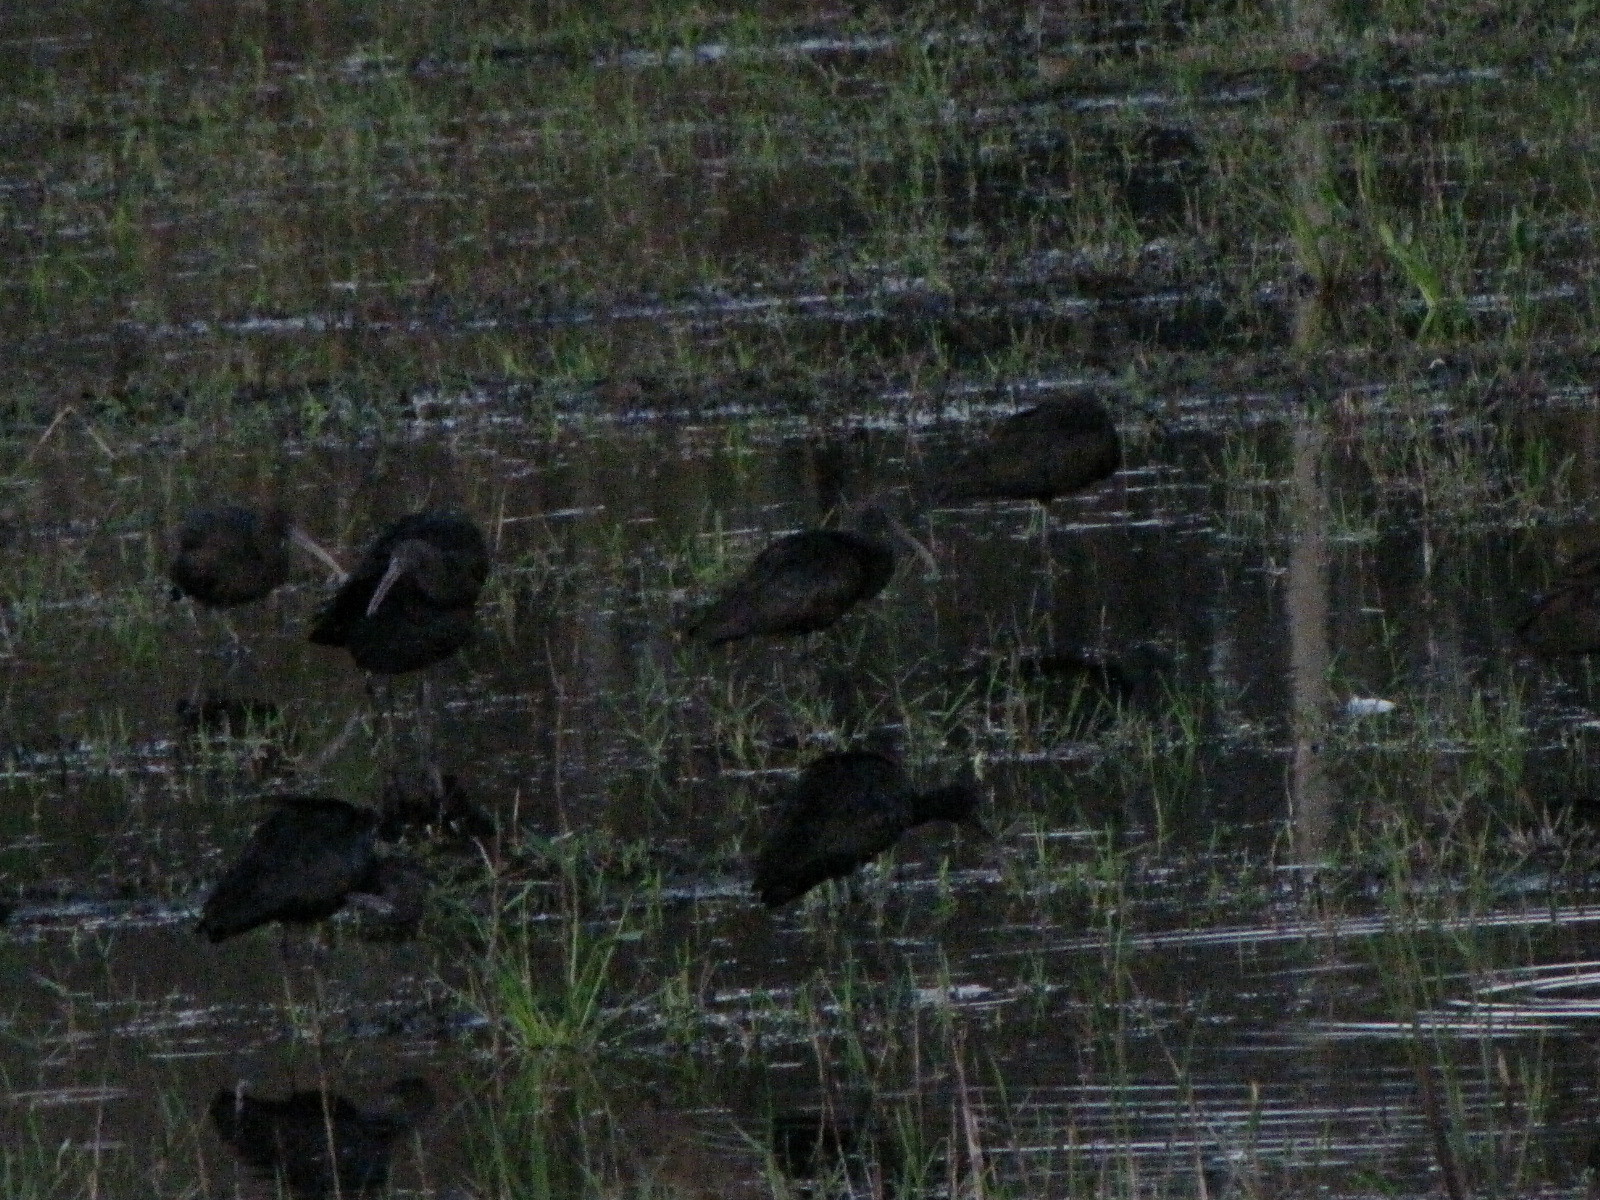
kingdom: Animalia
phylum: Chordata
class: Aves
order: Pelecaniformes
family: Threskiornithidae
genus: Plegadis
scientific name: Plegadis falcinellus
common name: Glossy ibis
